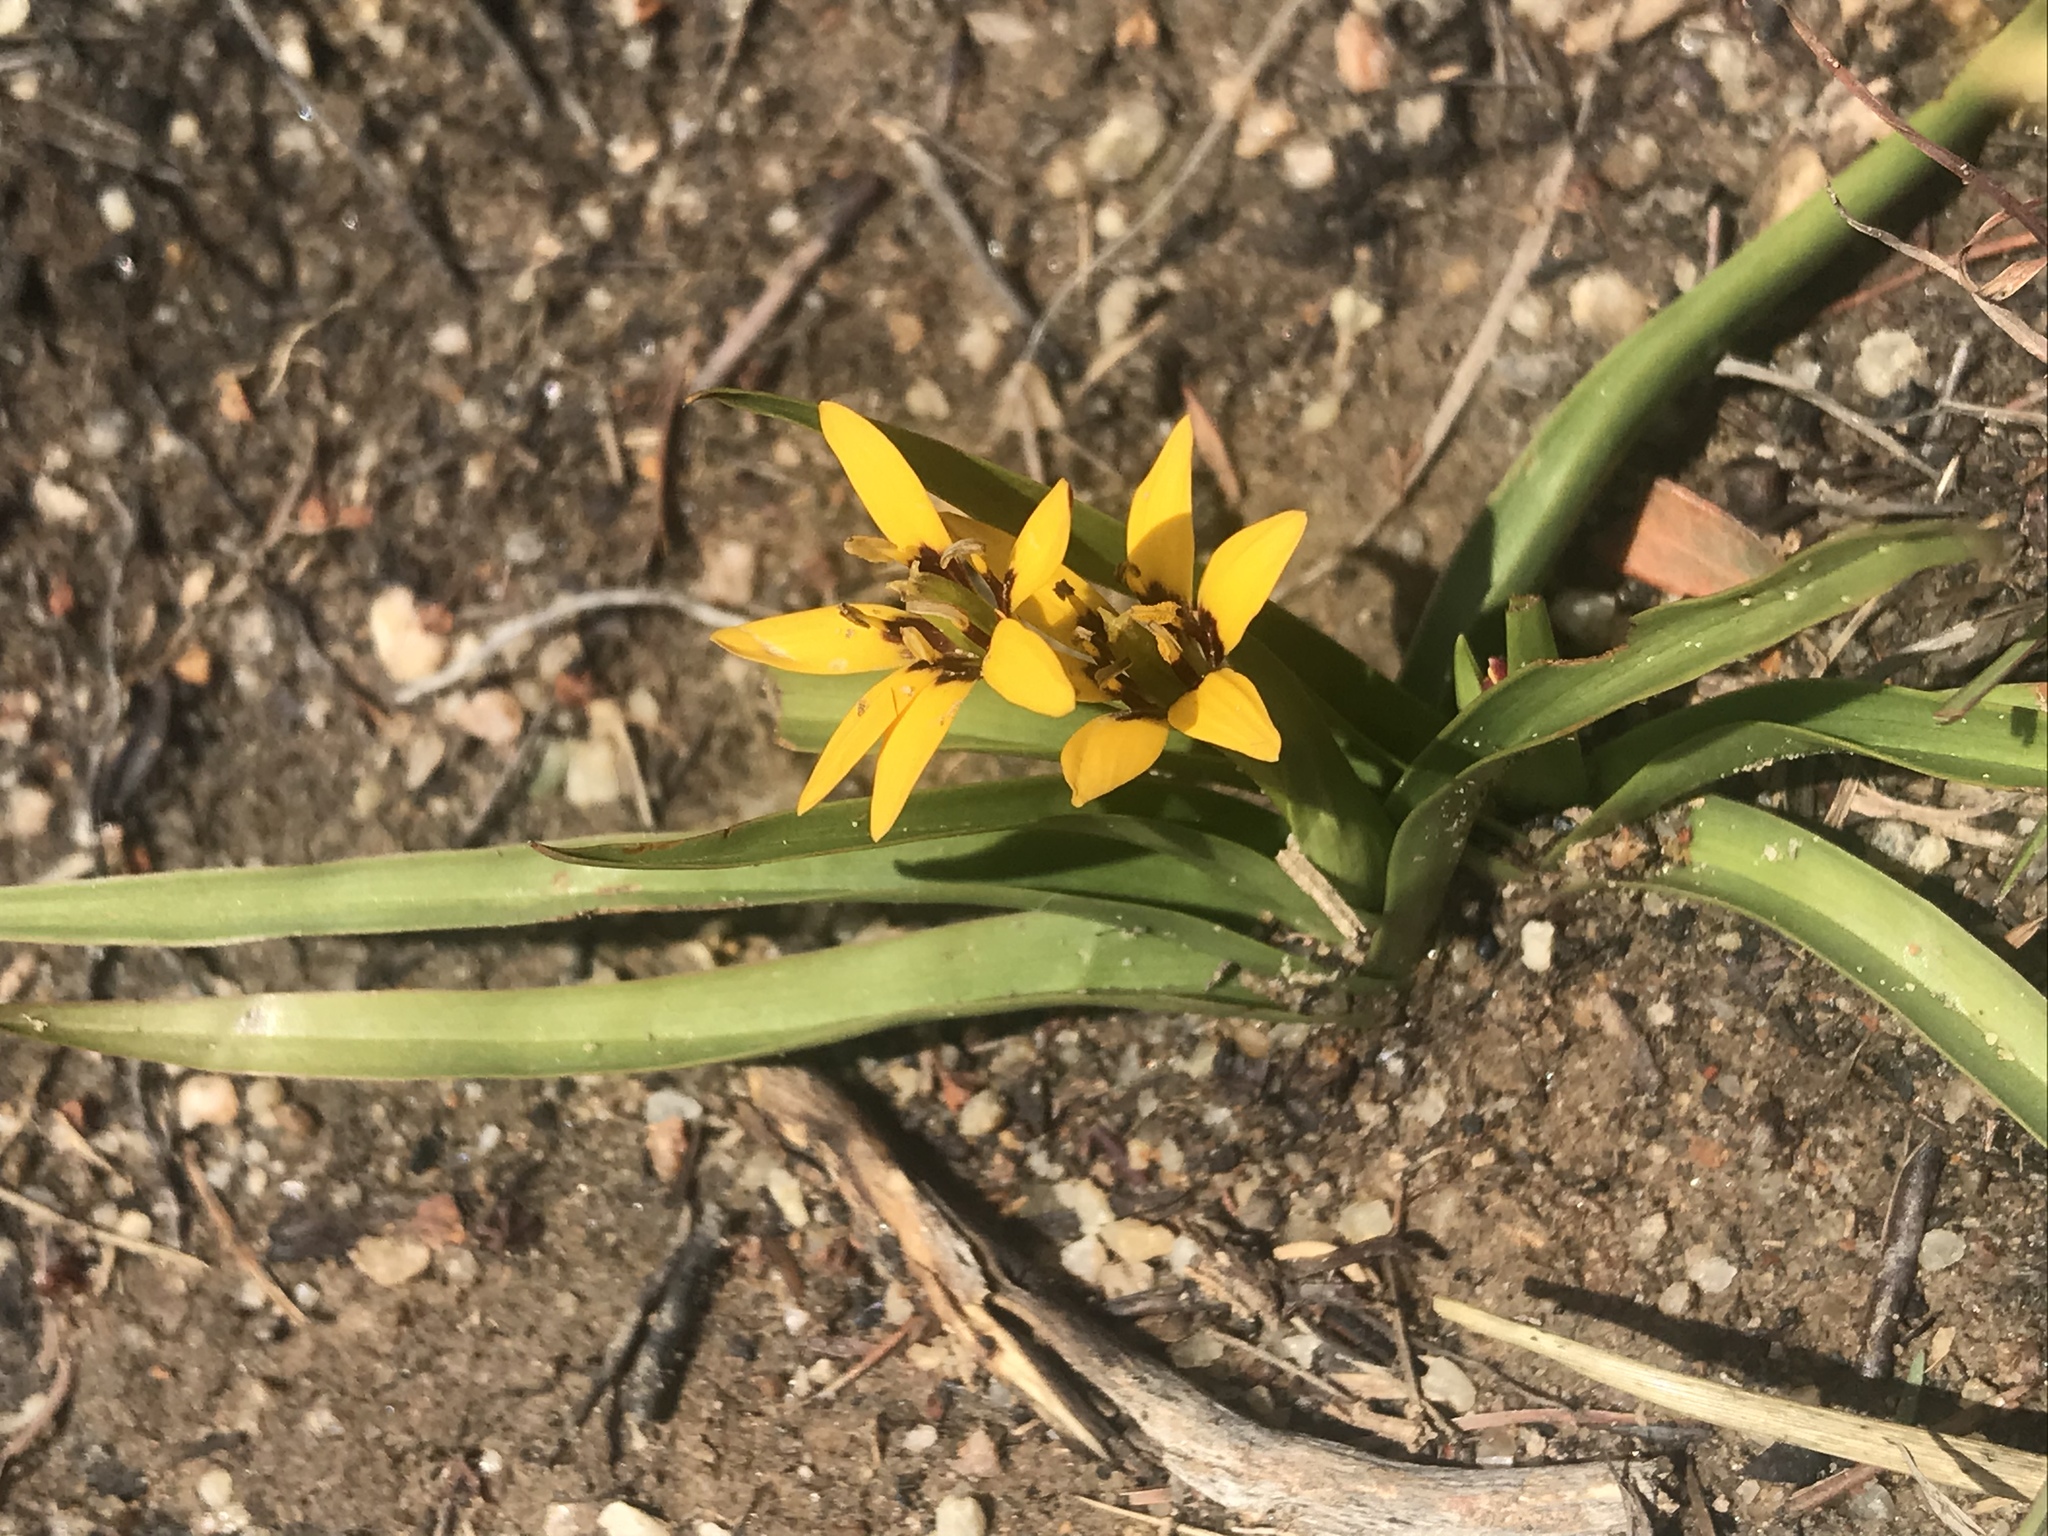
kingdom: Plantae
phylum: Tracheophyta
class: Liliopsida
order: Liliales
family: Colchicaceae
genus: Baeometra
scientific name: Baeometra uniflora
